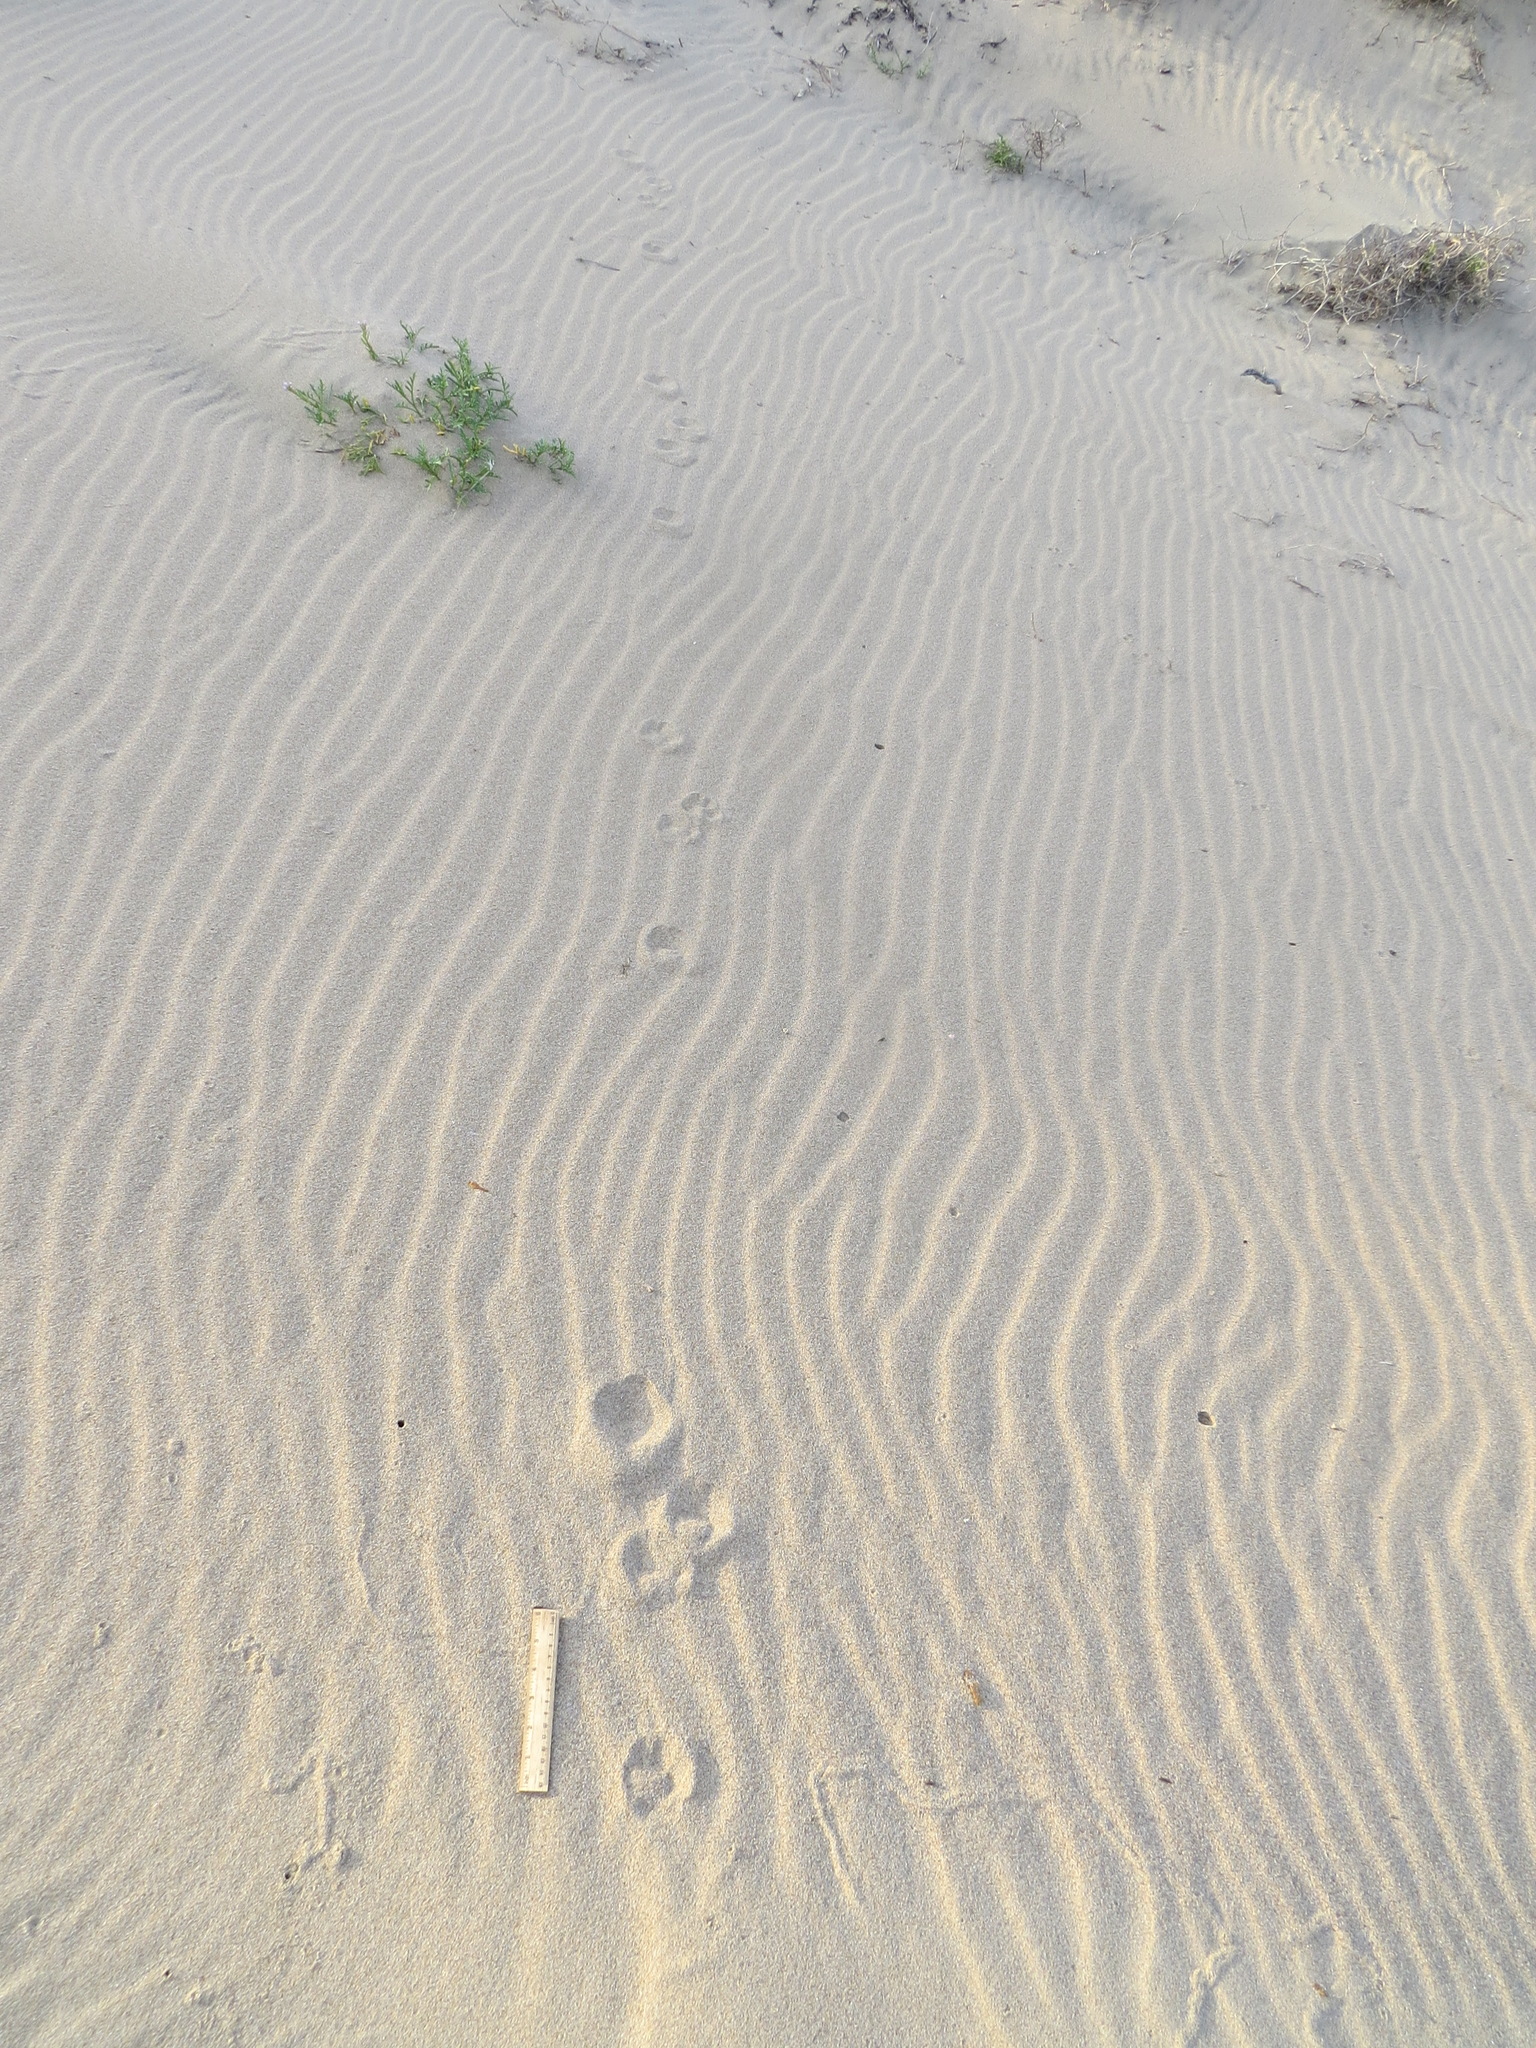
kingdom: Animalia
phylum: Chordata
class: Mammalia
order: Carnivora
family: Canidae
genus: Vulpes
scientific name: Vulpes vulpes
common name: Red fox
